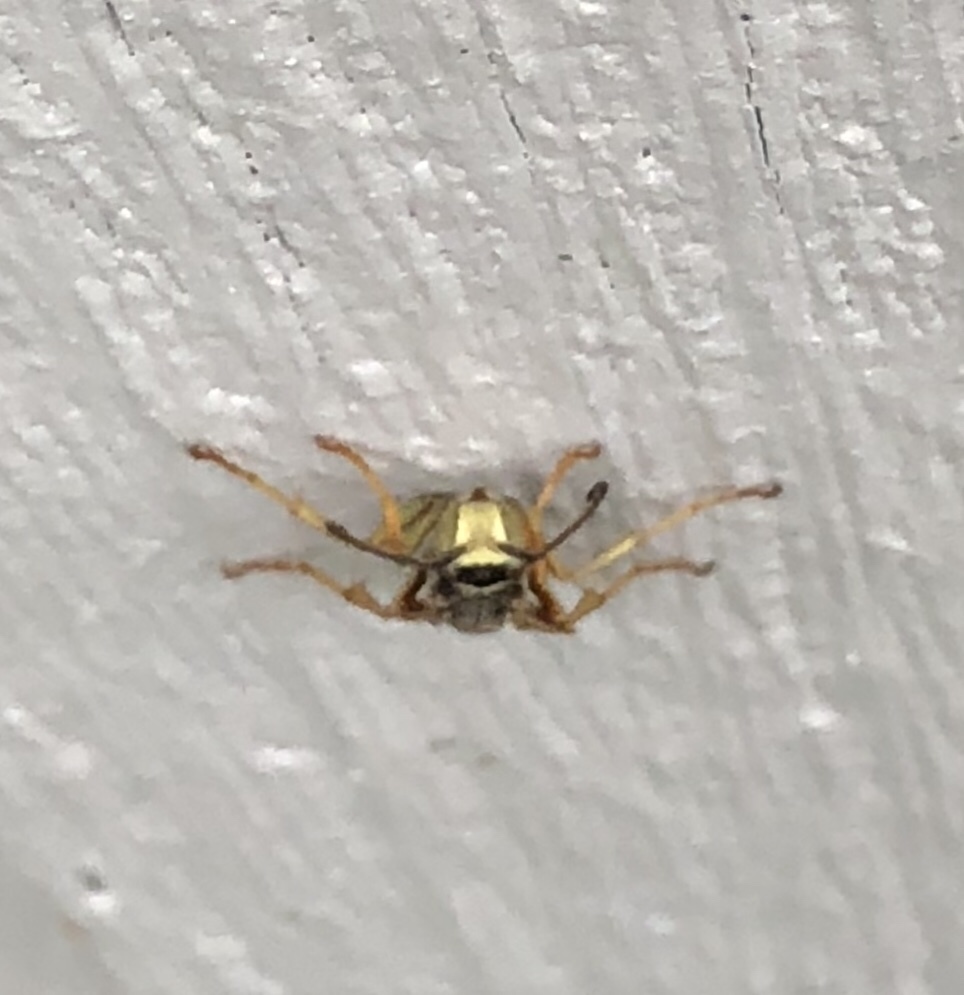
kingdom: Animalia
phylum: Arthropoda
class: Insecta
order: Hymenoptera
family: Eumenidae
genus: Polistes
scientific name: Polistes fuscatus
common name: Dark paper wasp
